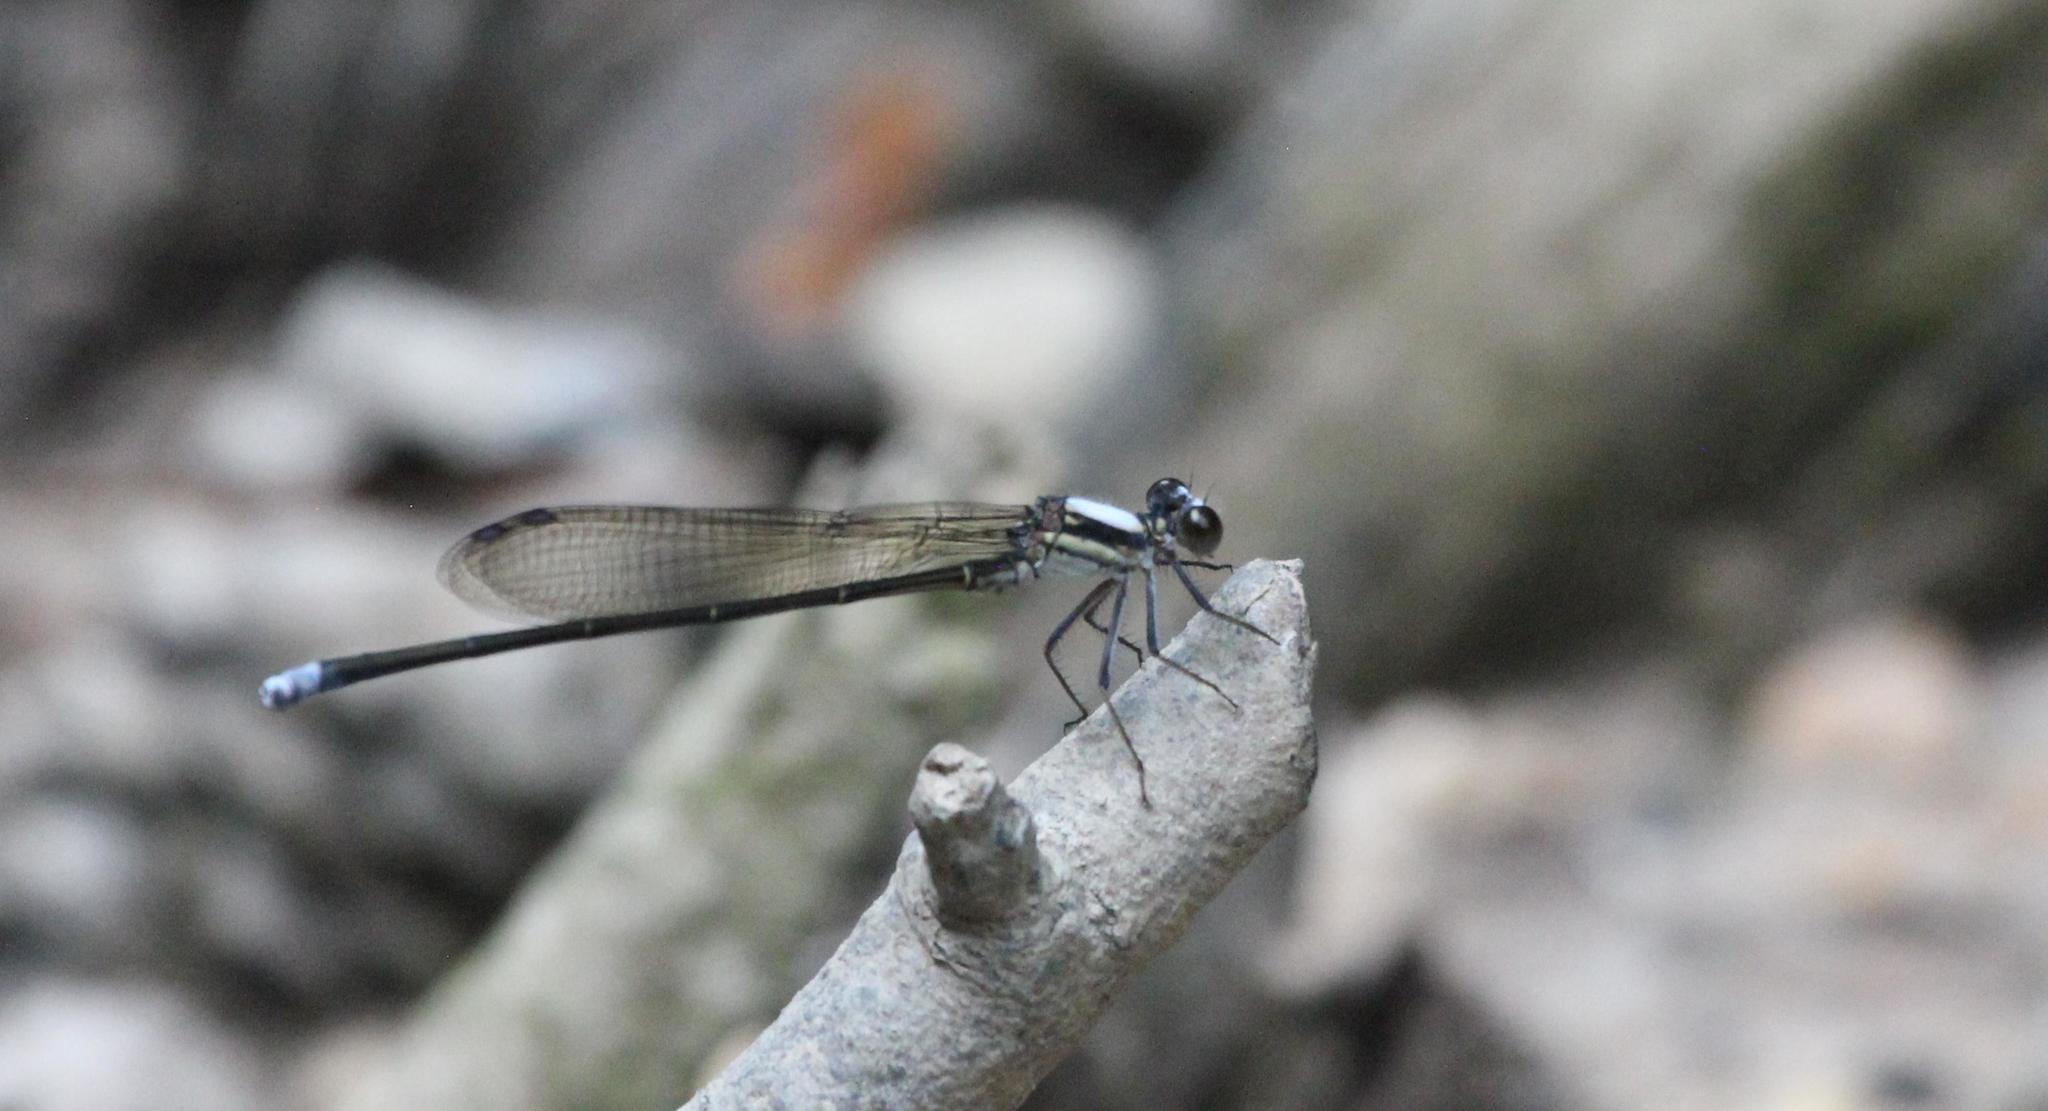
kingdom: Animalia
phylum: Arthropoda
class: Insecta
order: Odonata
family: Coenagrionidae
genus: Argia
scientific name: Argia tibialis
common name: Blue-tipped dancer
